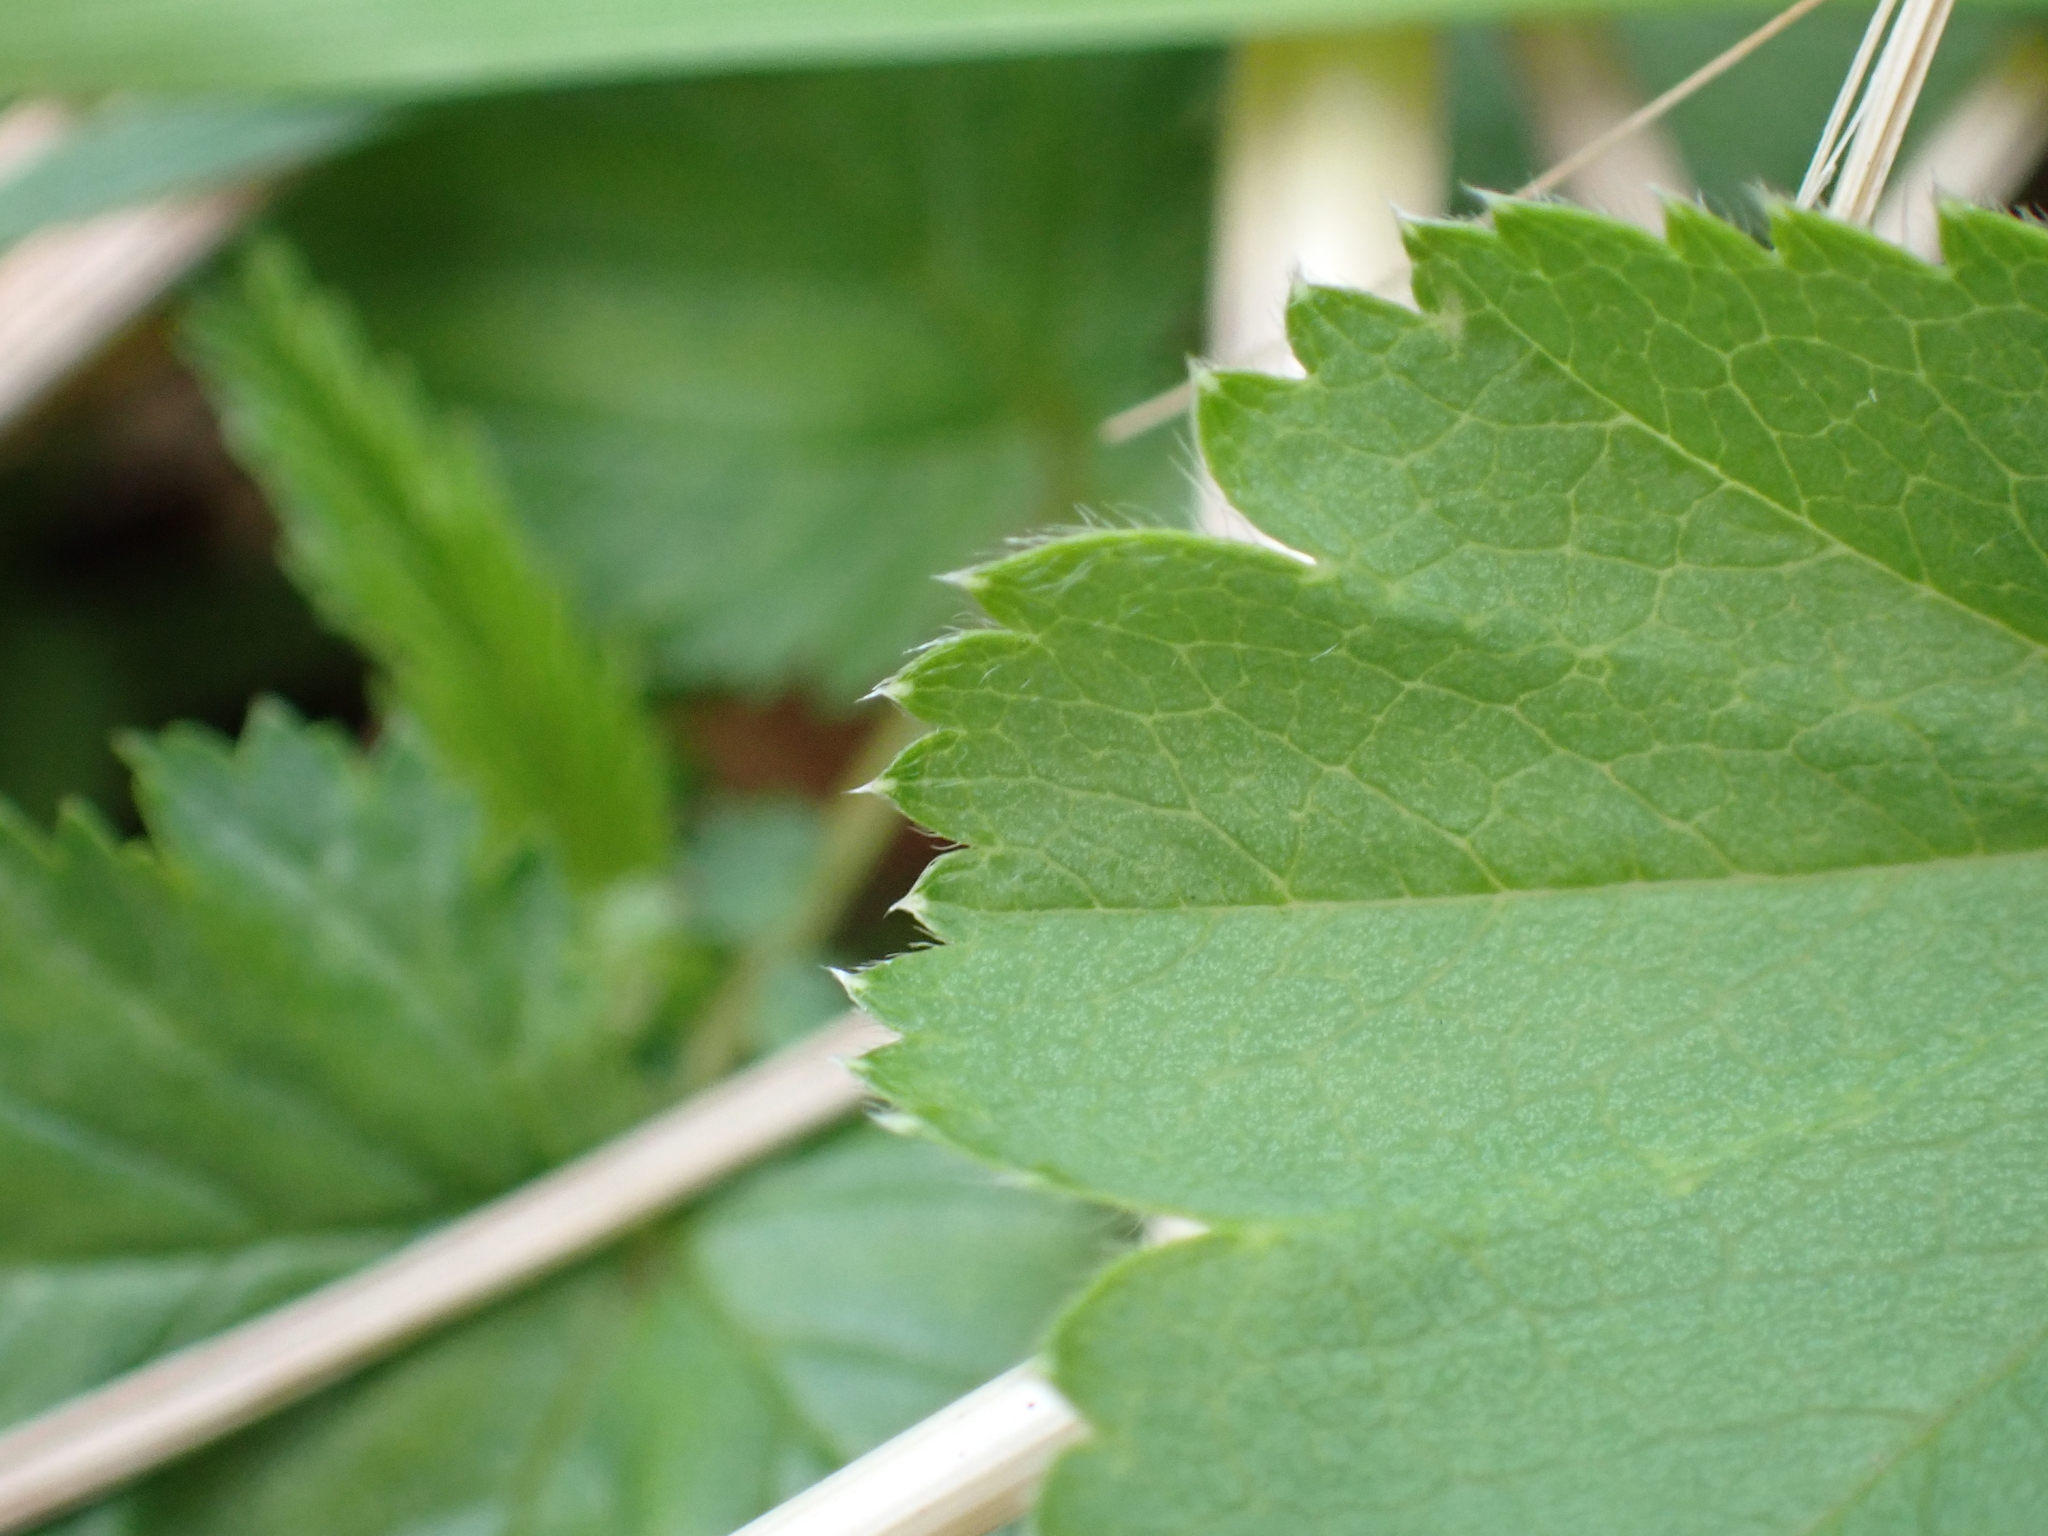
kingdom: Plantae
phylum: Tracheophyta
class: Magnoliopsida
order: Rosales
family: Rosaceae
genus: Alchemilla
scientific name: Alchemilla crinita
